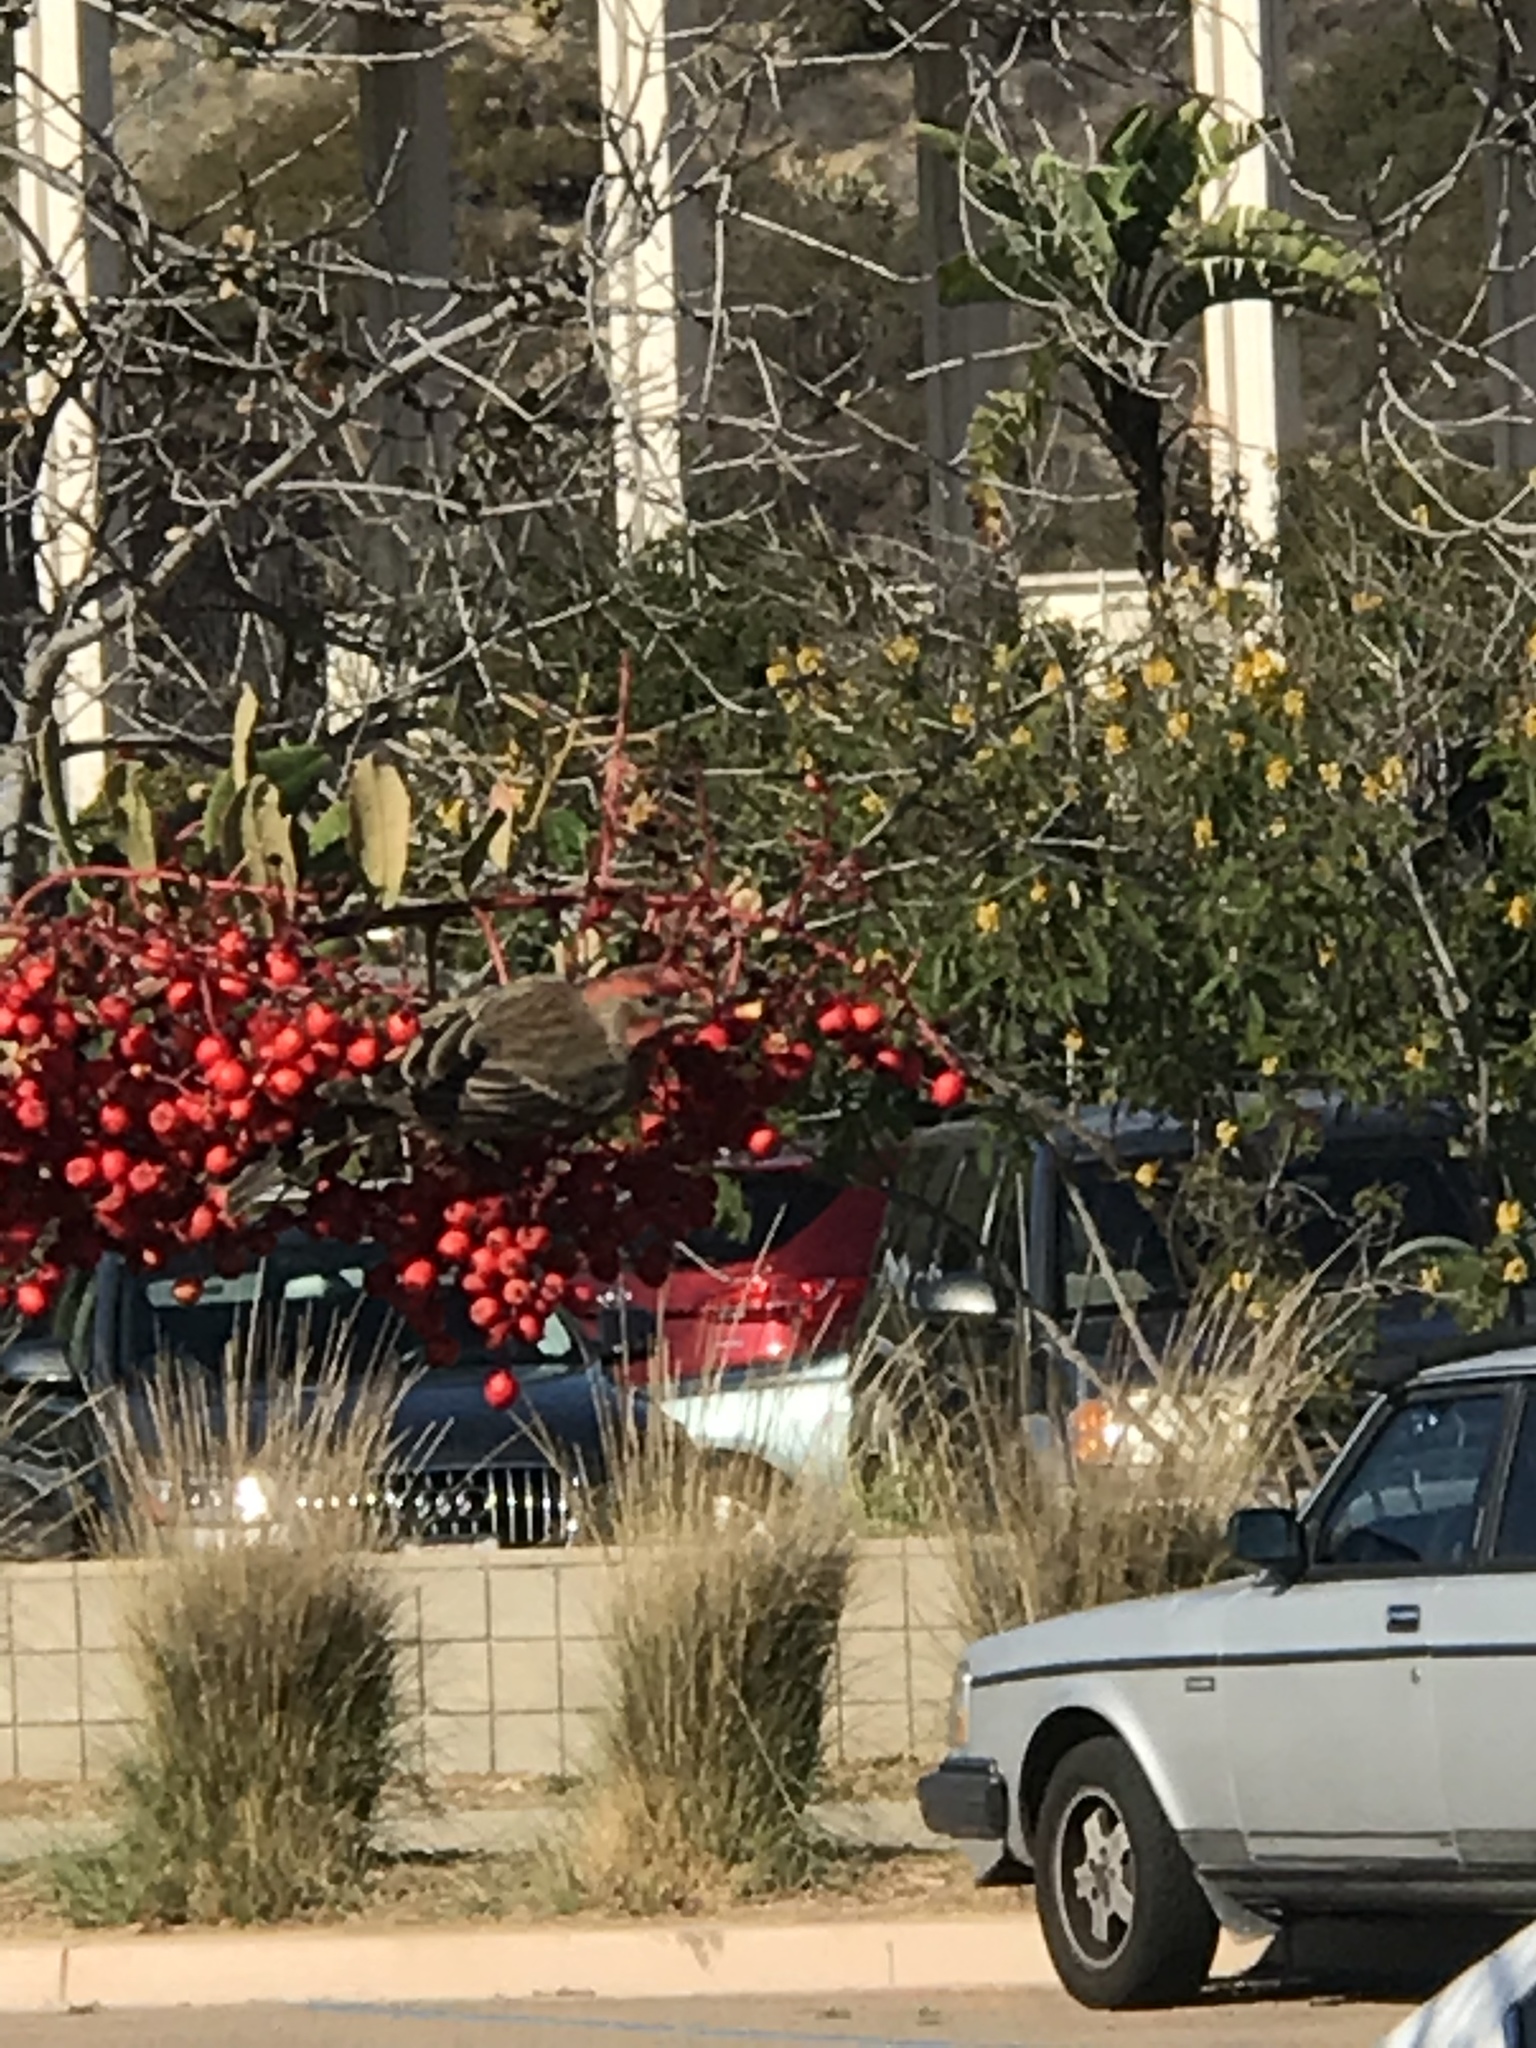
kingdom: Animalia
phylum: Chordata
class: Aves
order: Passeriformes
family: Fringillidae
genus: Haemorhous
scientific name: Haemorhous mexicanus
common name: House finch
